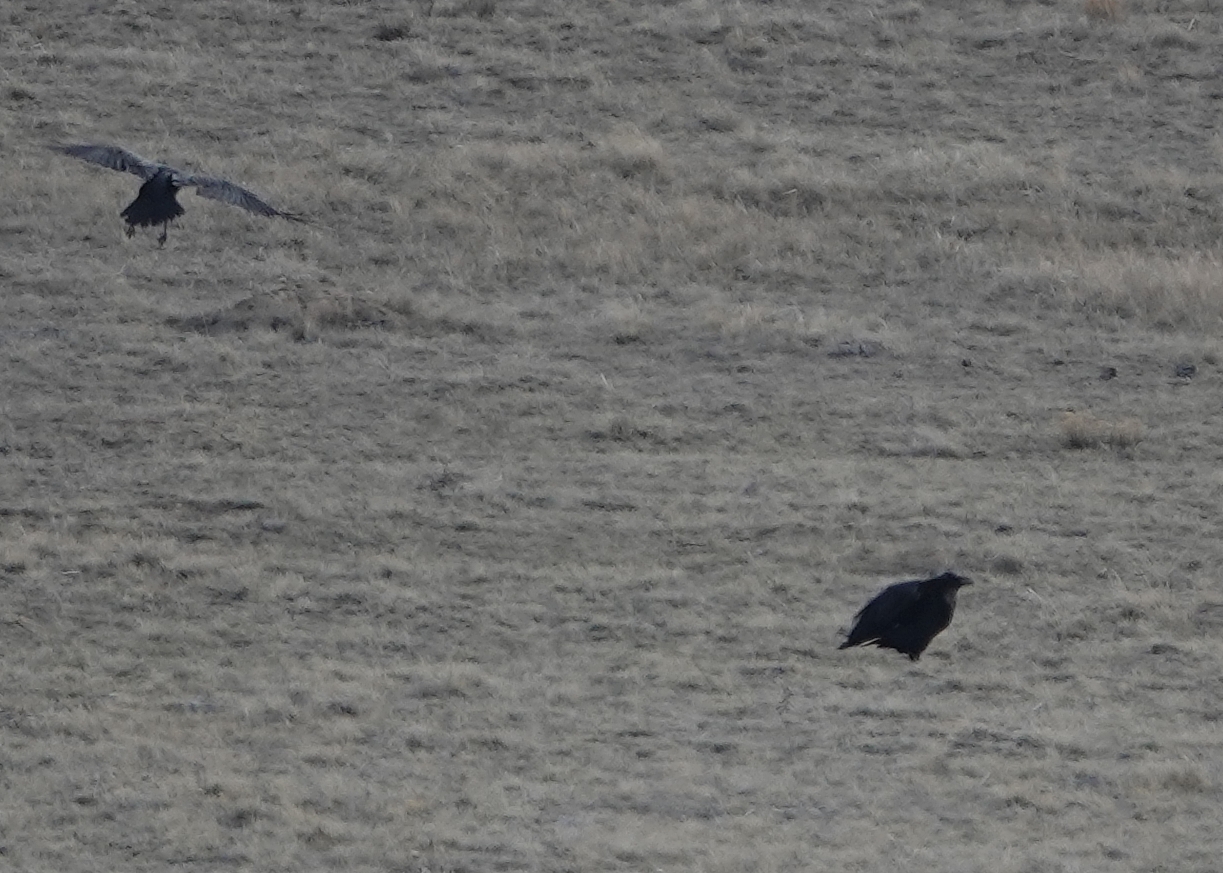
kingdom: Animalia
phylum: Chordata
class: Aves
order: Passeriformes
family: Corvidae
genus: Corvus
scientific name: Corvus corax
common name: Common raven
